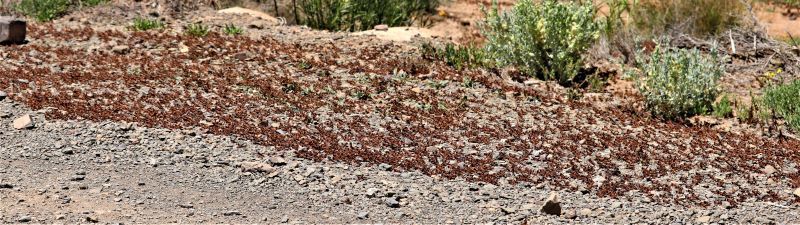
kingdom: Animalia
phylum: Arthropoda
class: Insecta
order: Orthoptera
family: Acrididae
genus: Locustana
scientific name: Locustana pardalina
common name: Brown locust
